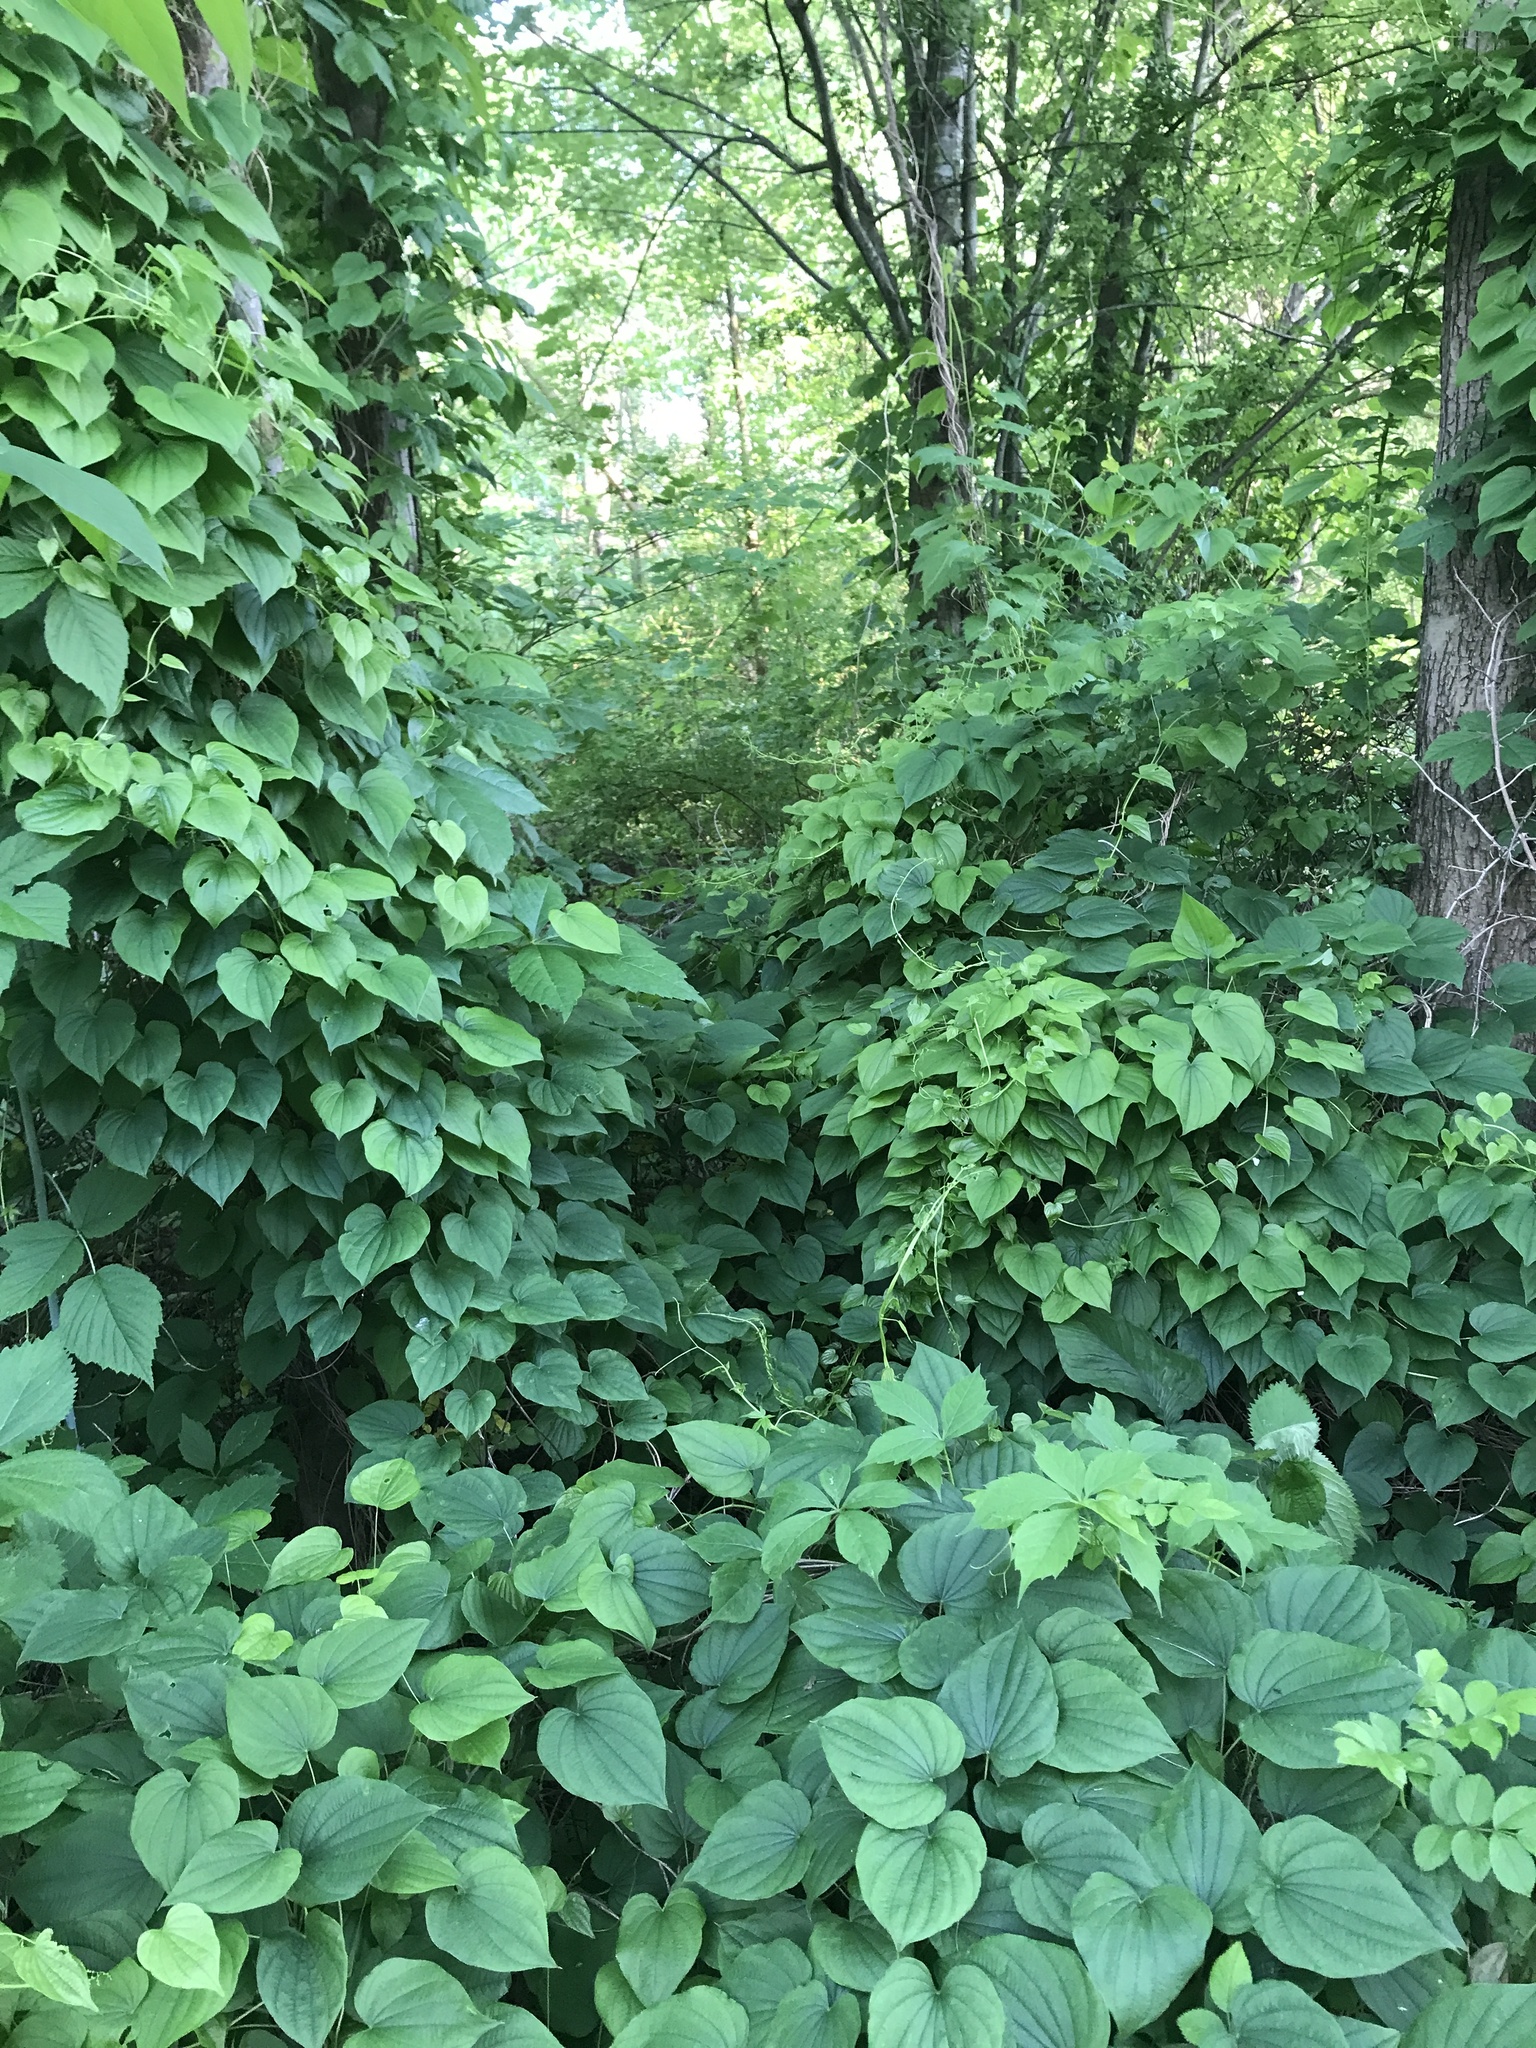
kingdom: Plantae
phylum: Tracheophyta
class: Liliopsida
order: Dioscoreales
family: Dioscoreaceae
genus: Dioscorea
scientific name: Dioscorea villosa
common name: Wild yam
